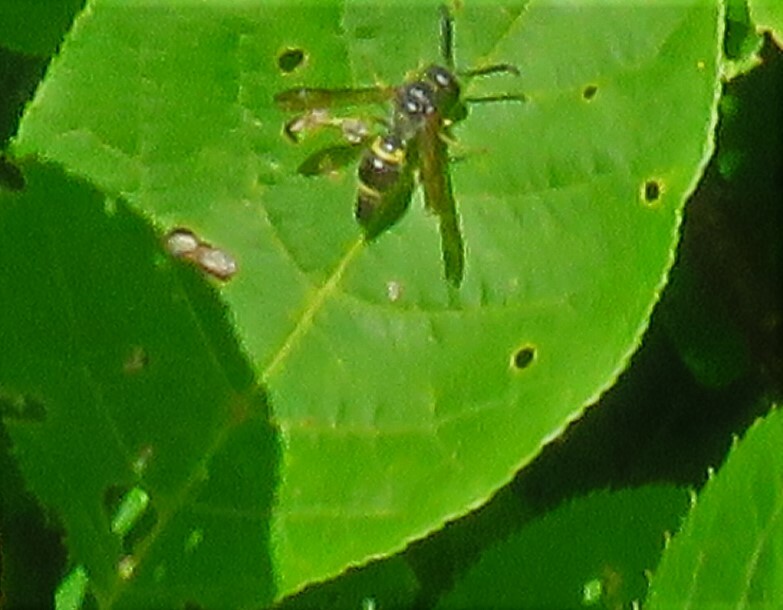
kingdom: Animalia
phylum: Arthropoda
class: Insecta
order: Hymenoptera
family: Vespidae
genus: Ancistrocerus
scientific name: Ancistrocerus unifasciatus
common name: One-banded mason wasp
